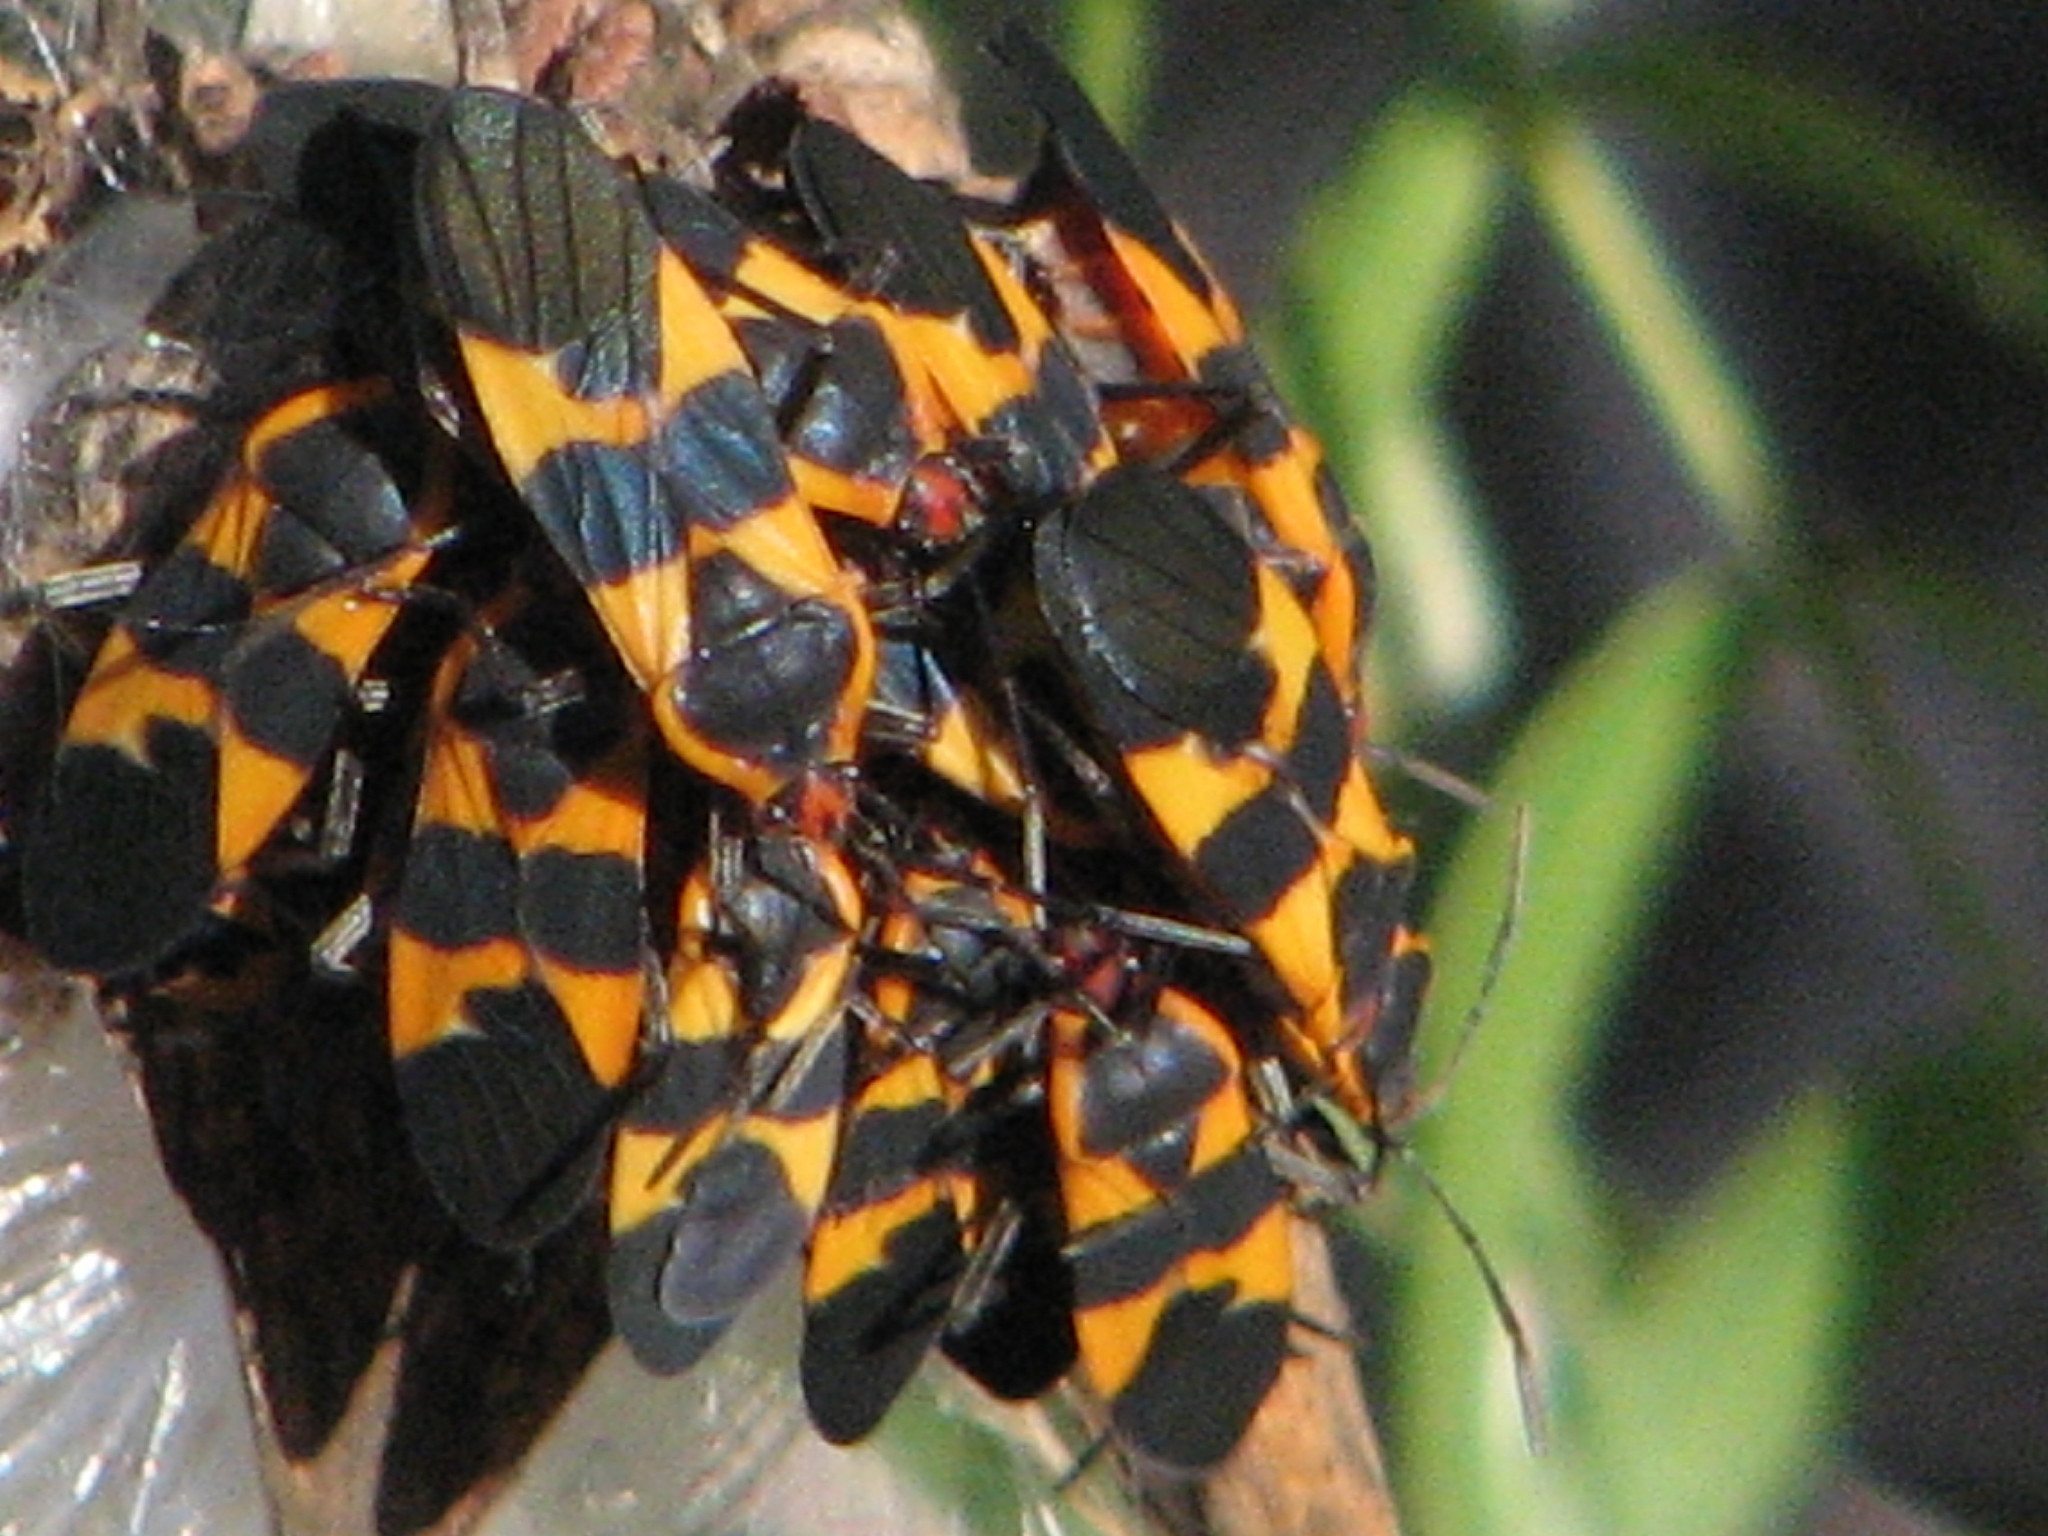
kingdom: Animalia
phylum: Arthropoda
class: Insecta
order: Hemiptera
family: Lygaeidae
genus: Oncopeltus
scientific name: Oncopeltus fasciatus
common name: Large milkweed bug
